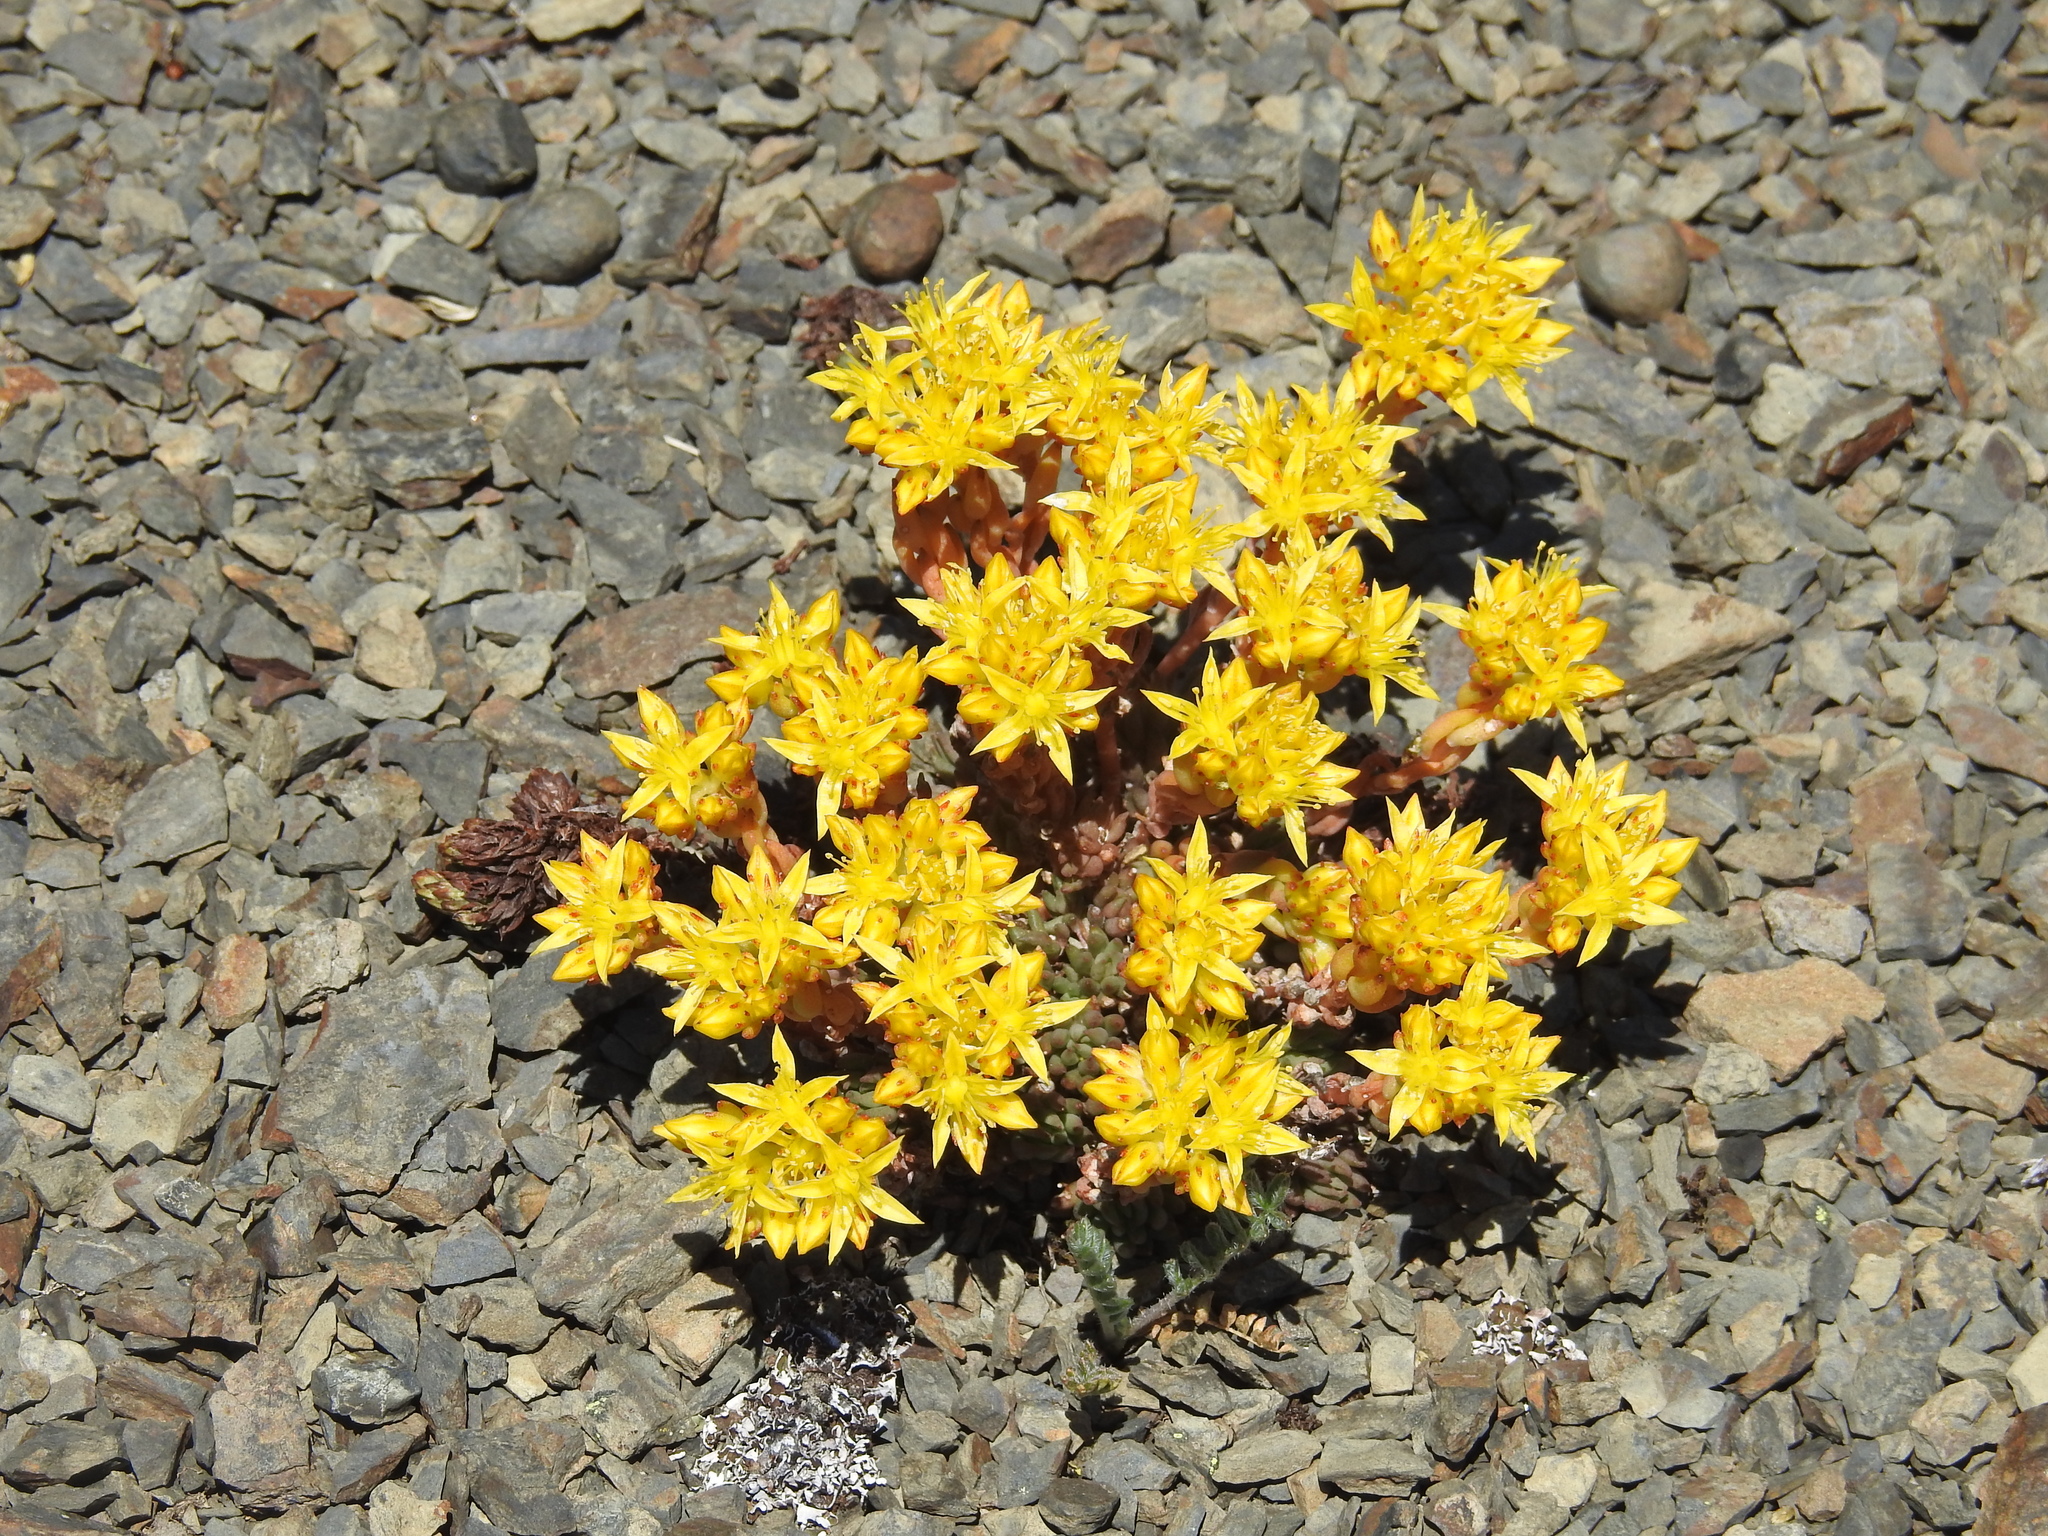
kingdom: Plantae
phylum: Tracheophyta
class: Magnoliopsida
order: Saxifragales
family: Crassulaceae
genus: Sedum
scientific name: Sedum lanceolatum
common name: Common stonecrop
